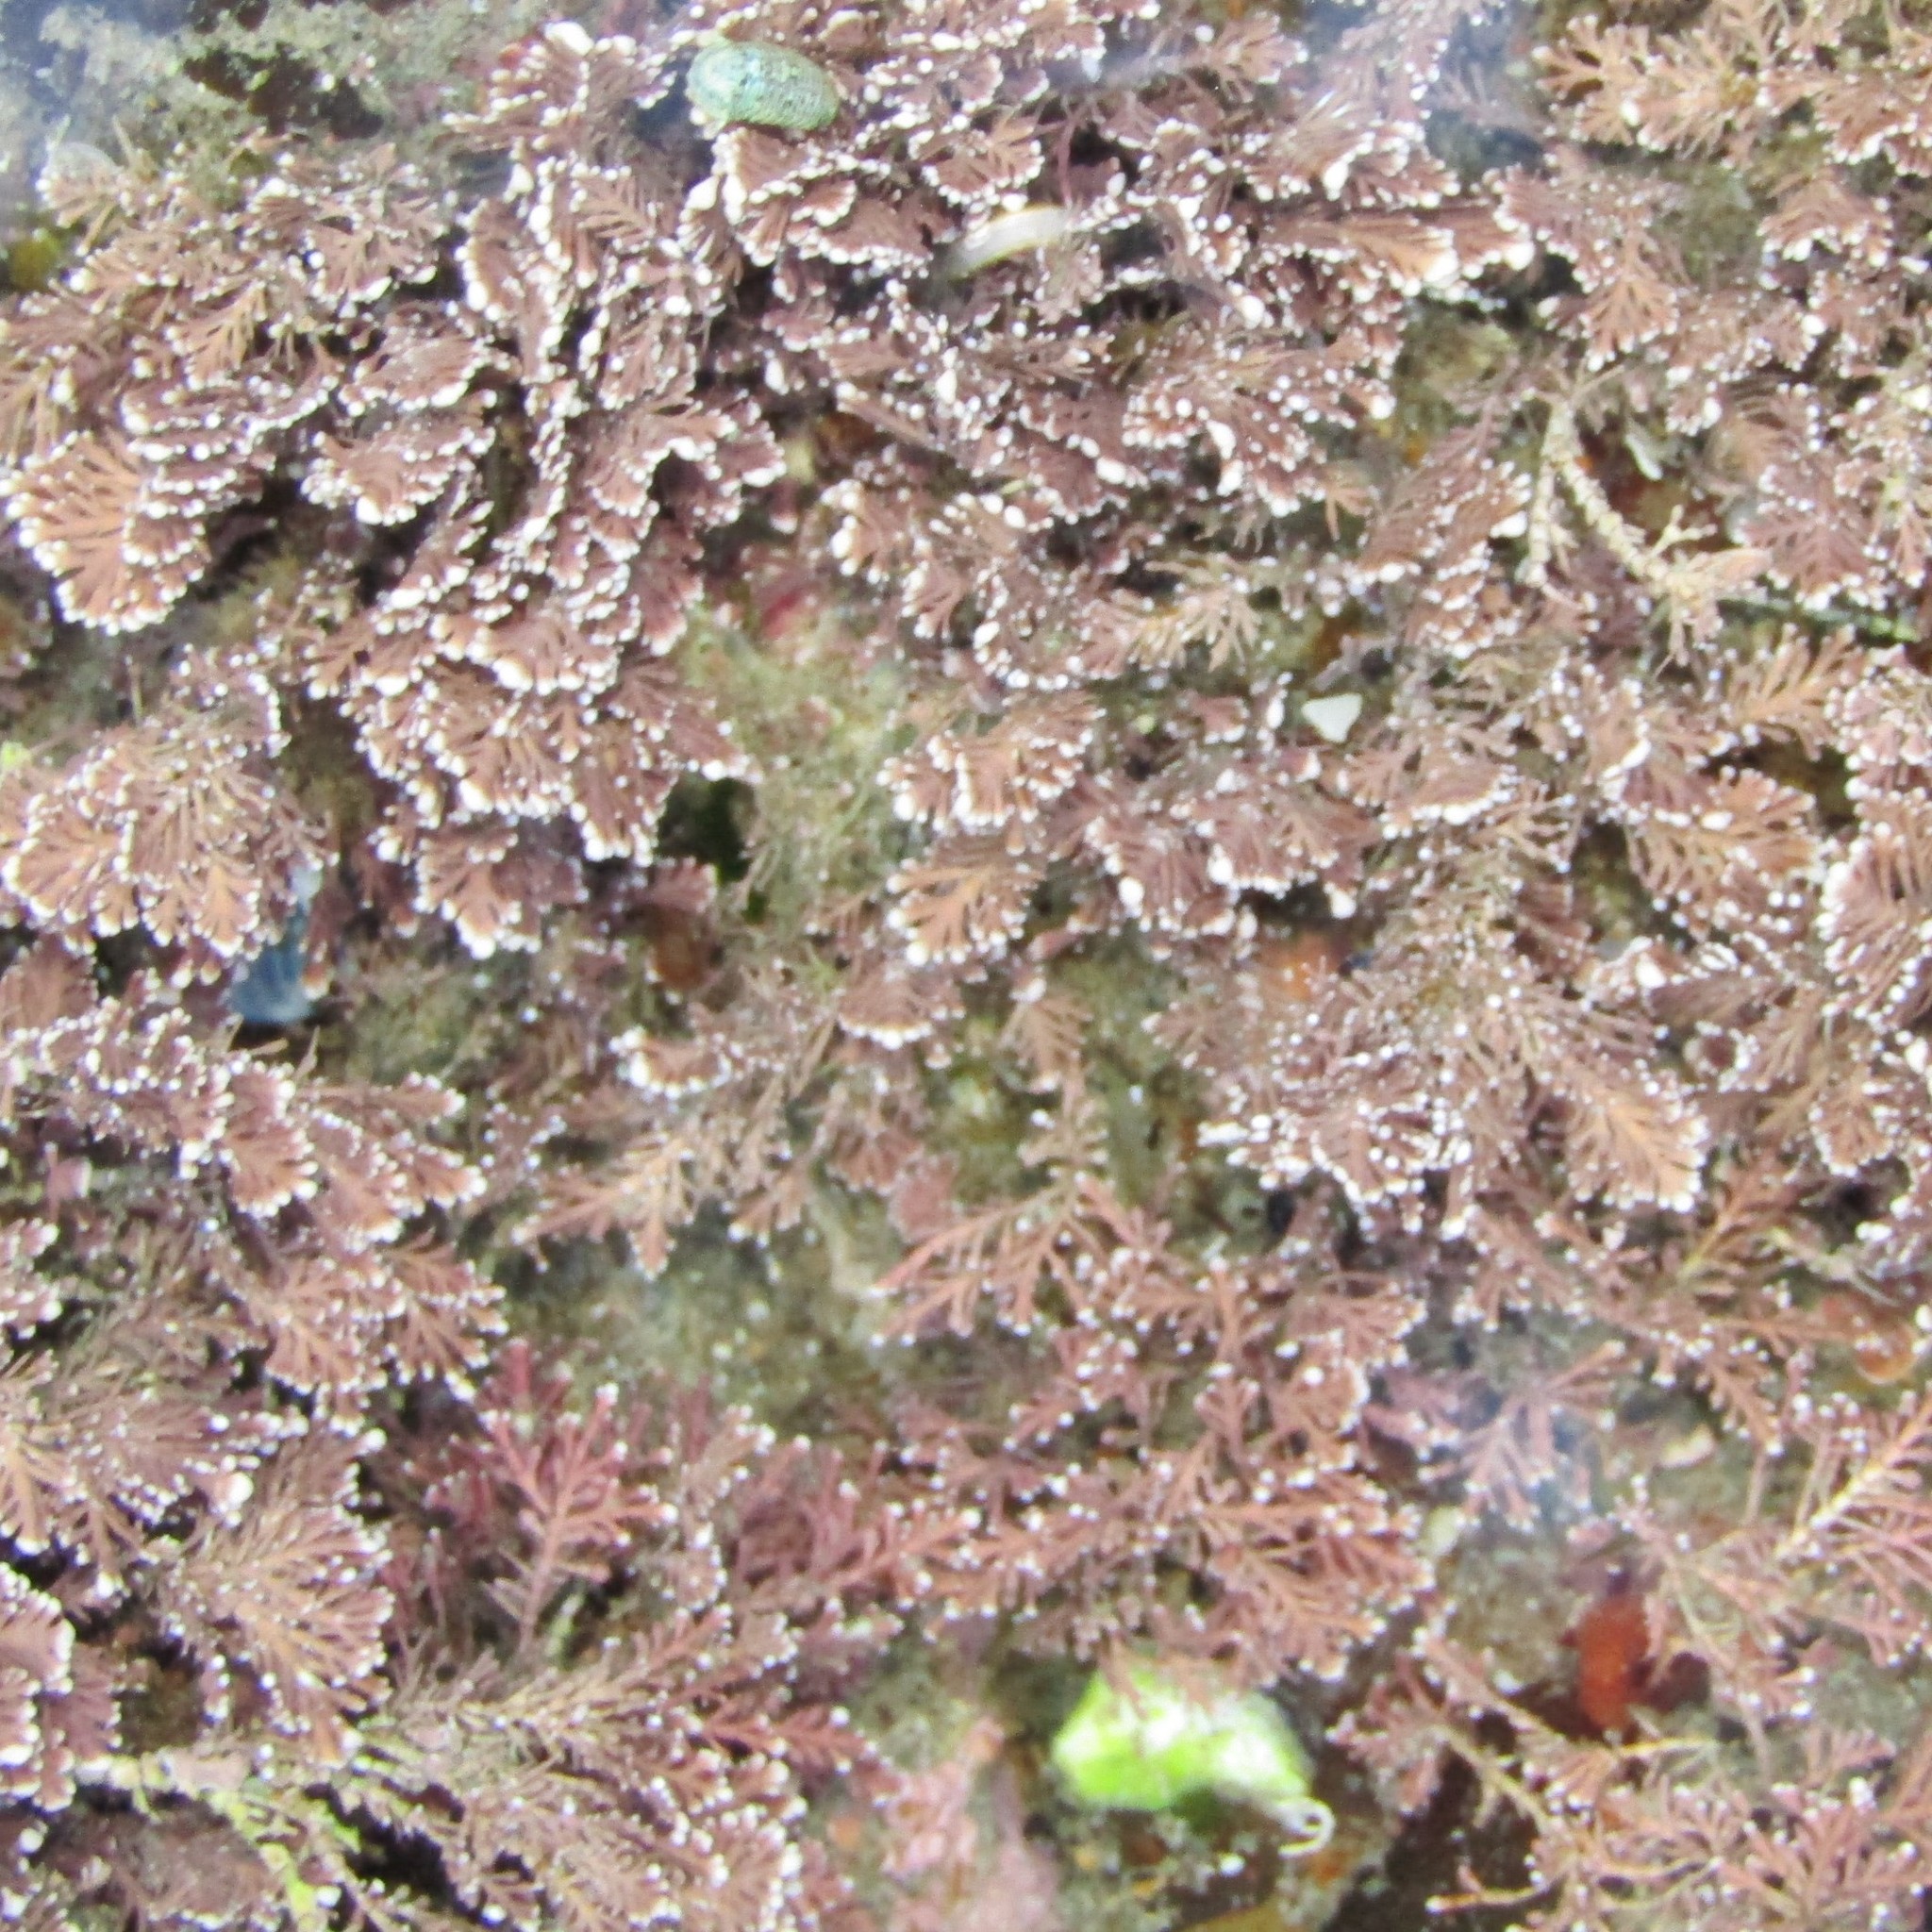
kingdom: Plantae
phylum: Rhodophyta
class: Florideophyceae
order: Corallinales
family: Corallinaceae
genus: Corallina
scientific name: Corallina officinalis
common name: Coral weed
